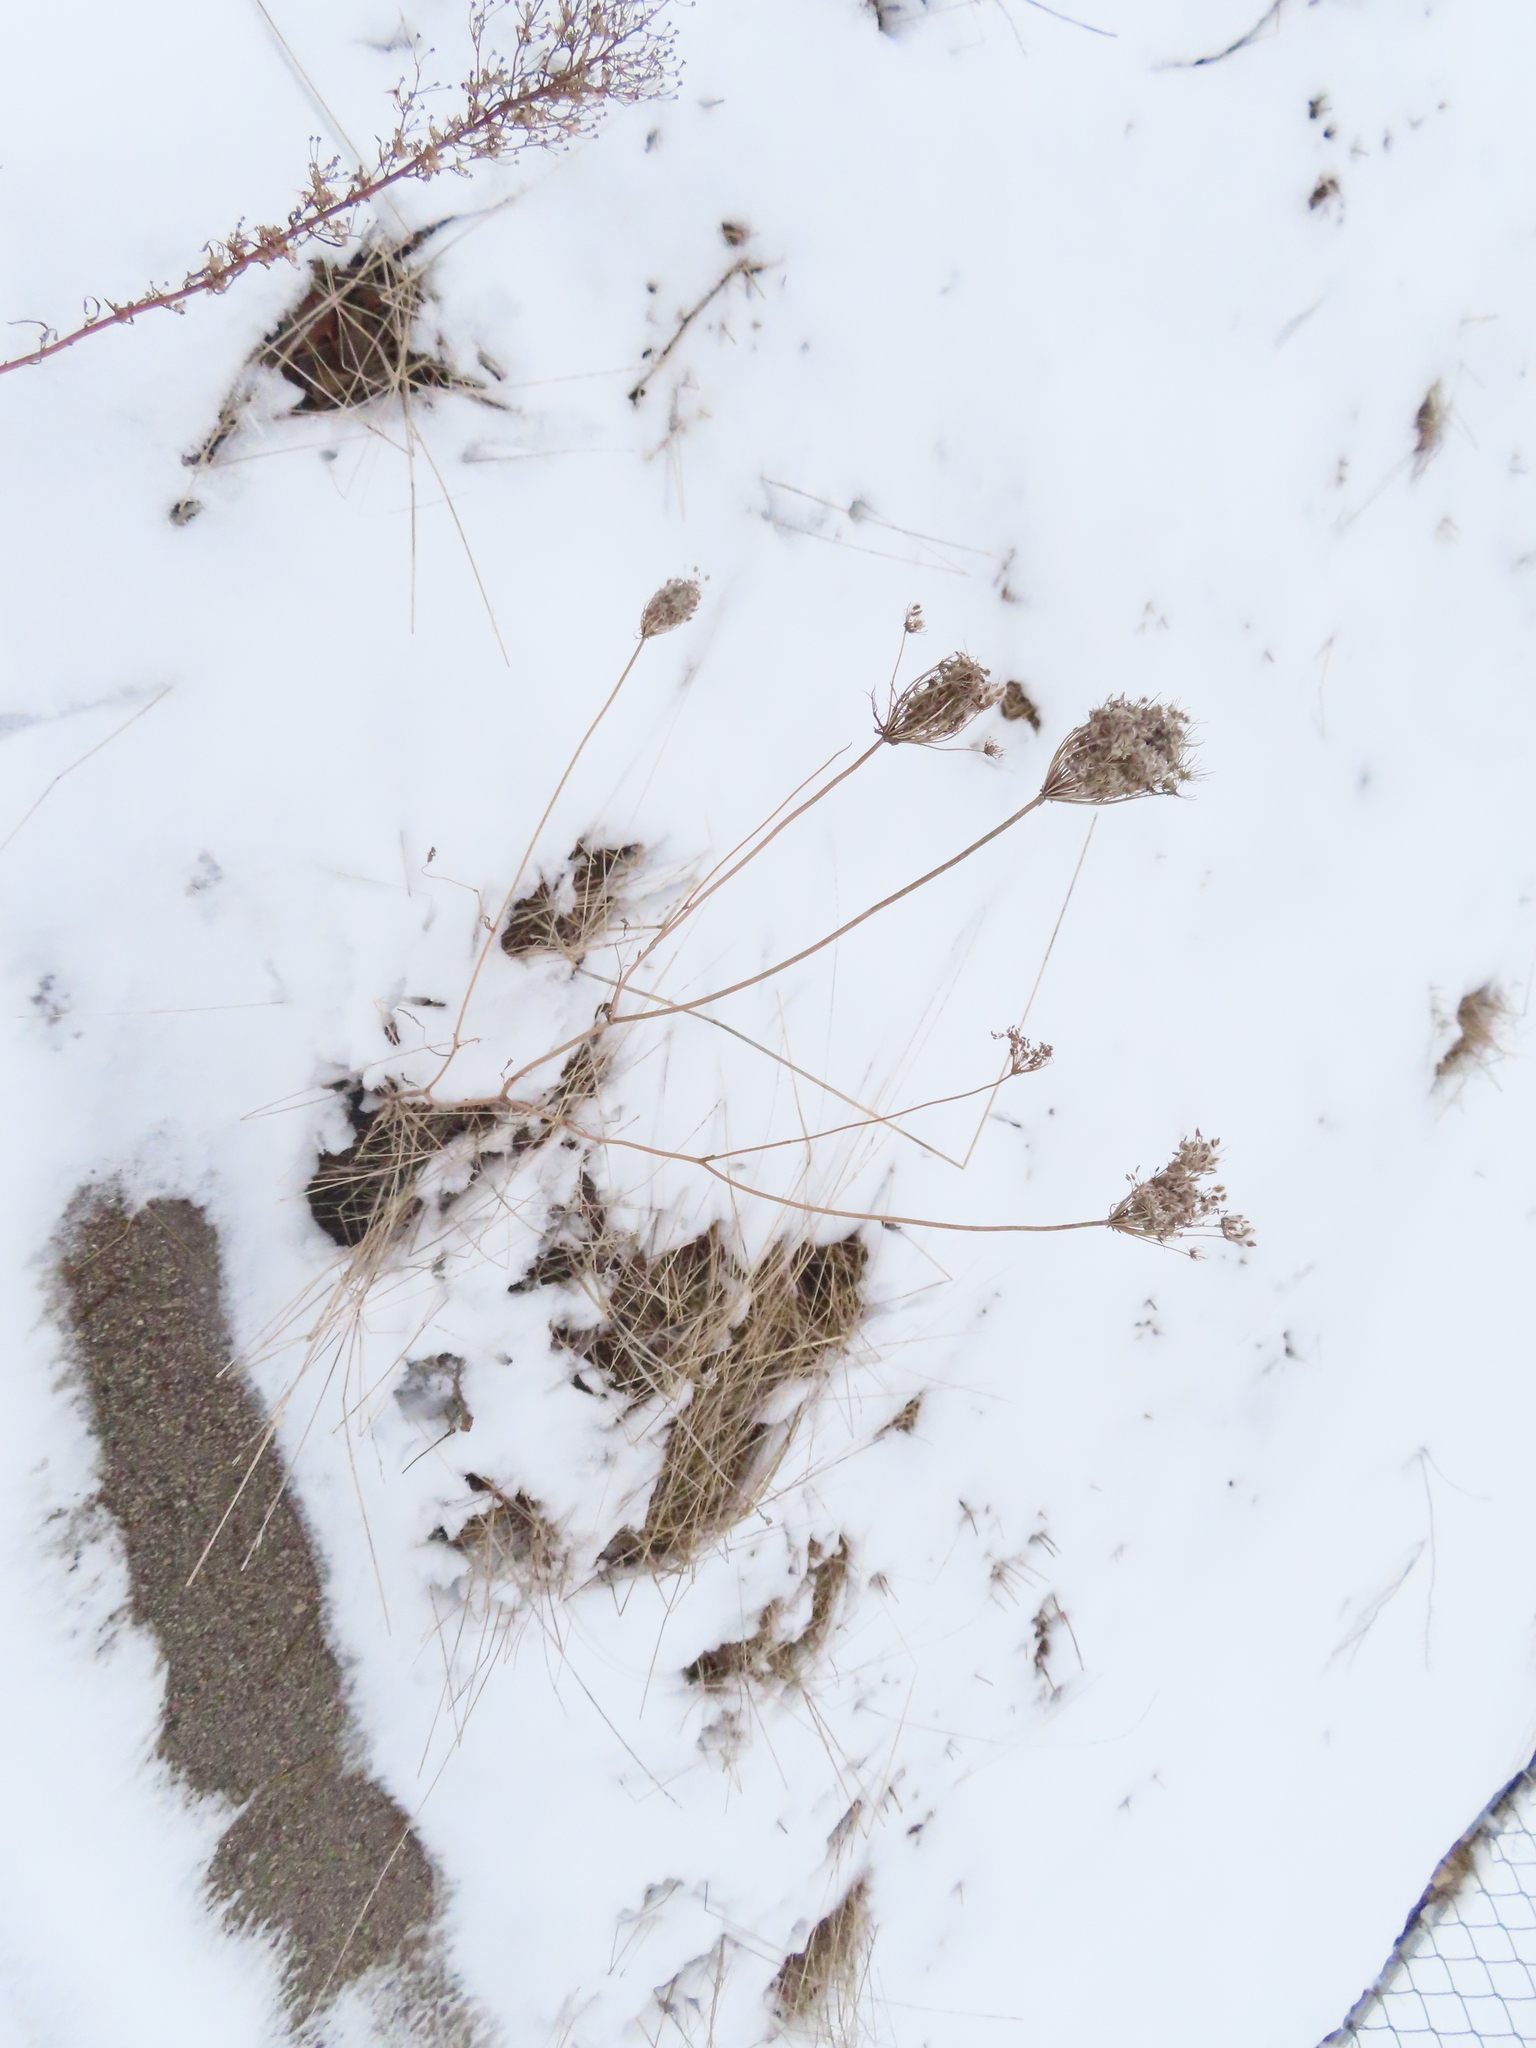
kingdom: Plantae
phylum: Tracheophyta
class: Magnoliopsida
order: Apiales
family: Apiaceae
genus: Daucus
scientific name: Daucus carota
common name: Wild carrot
